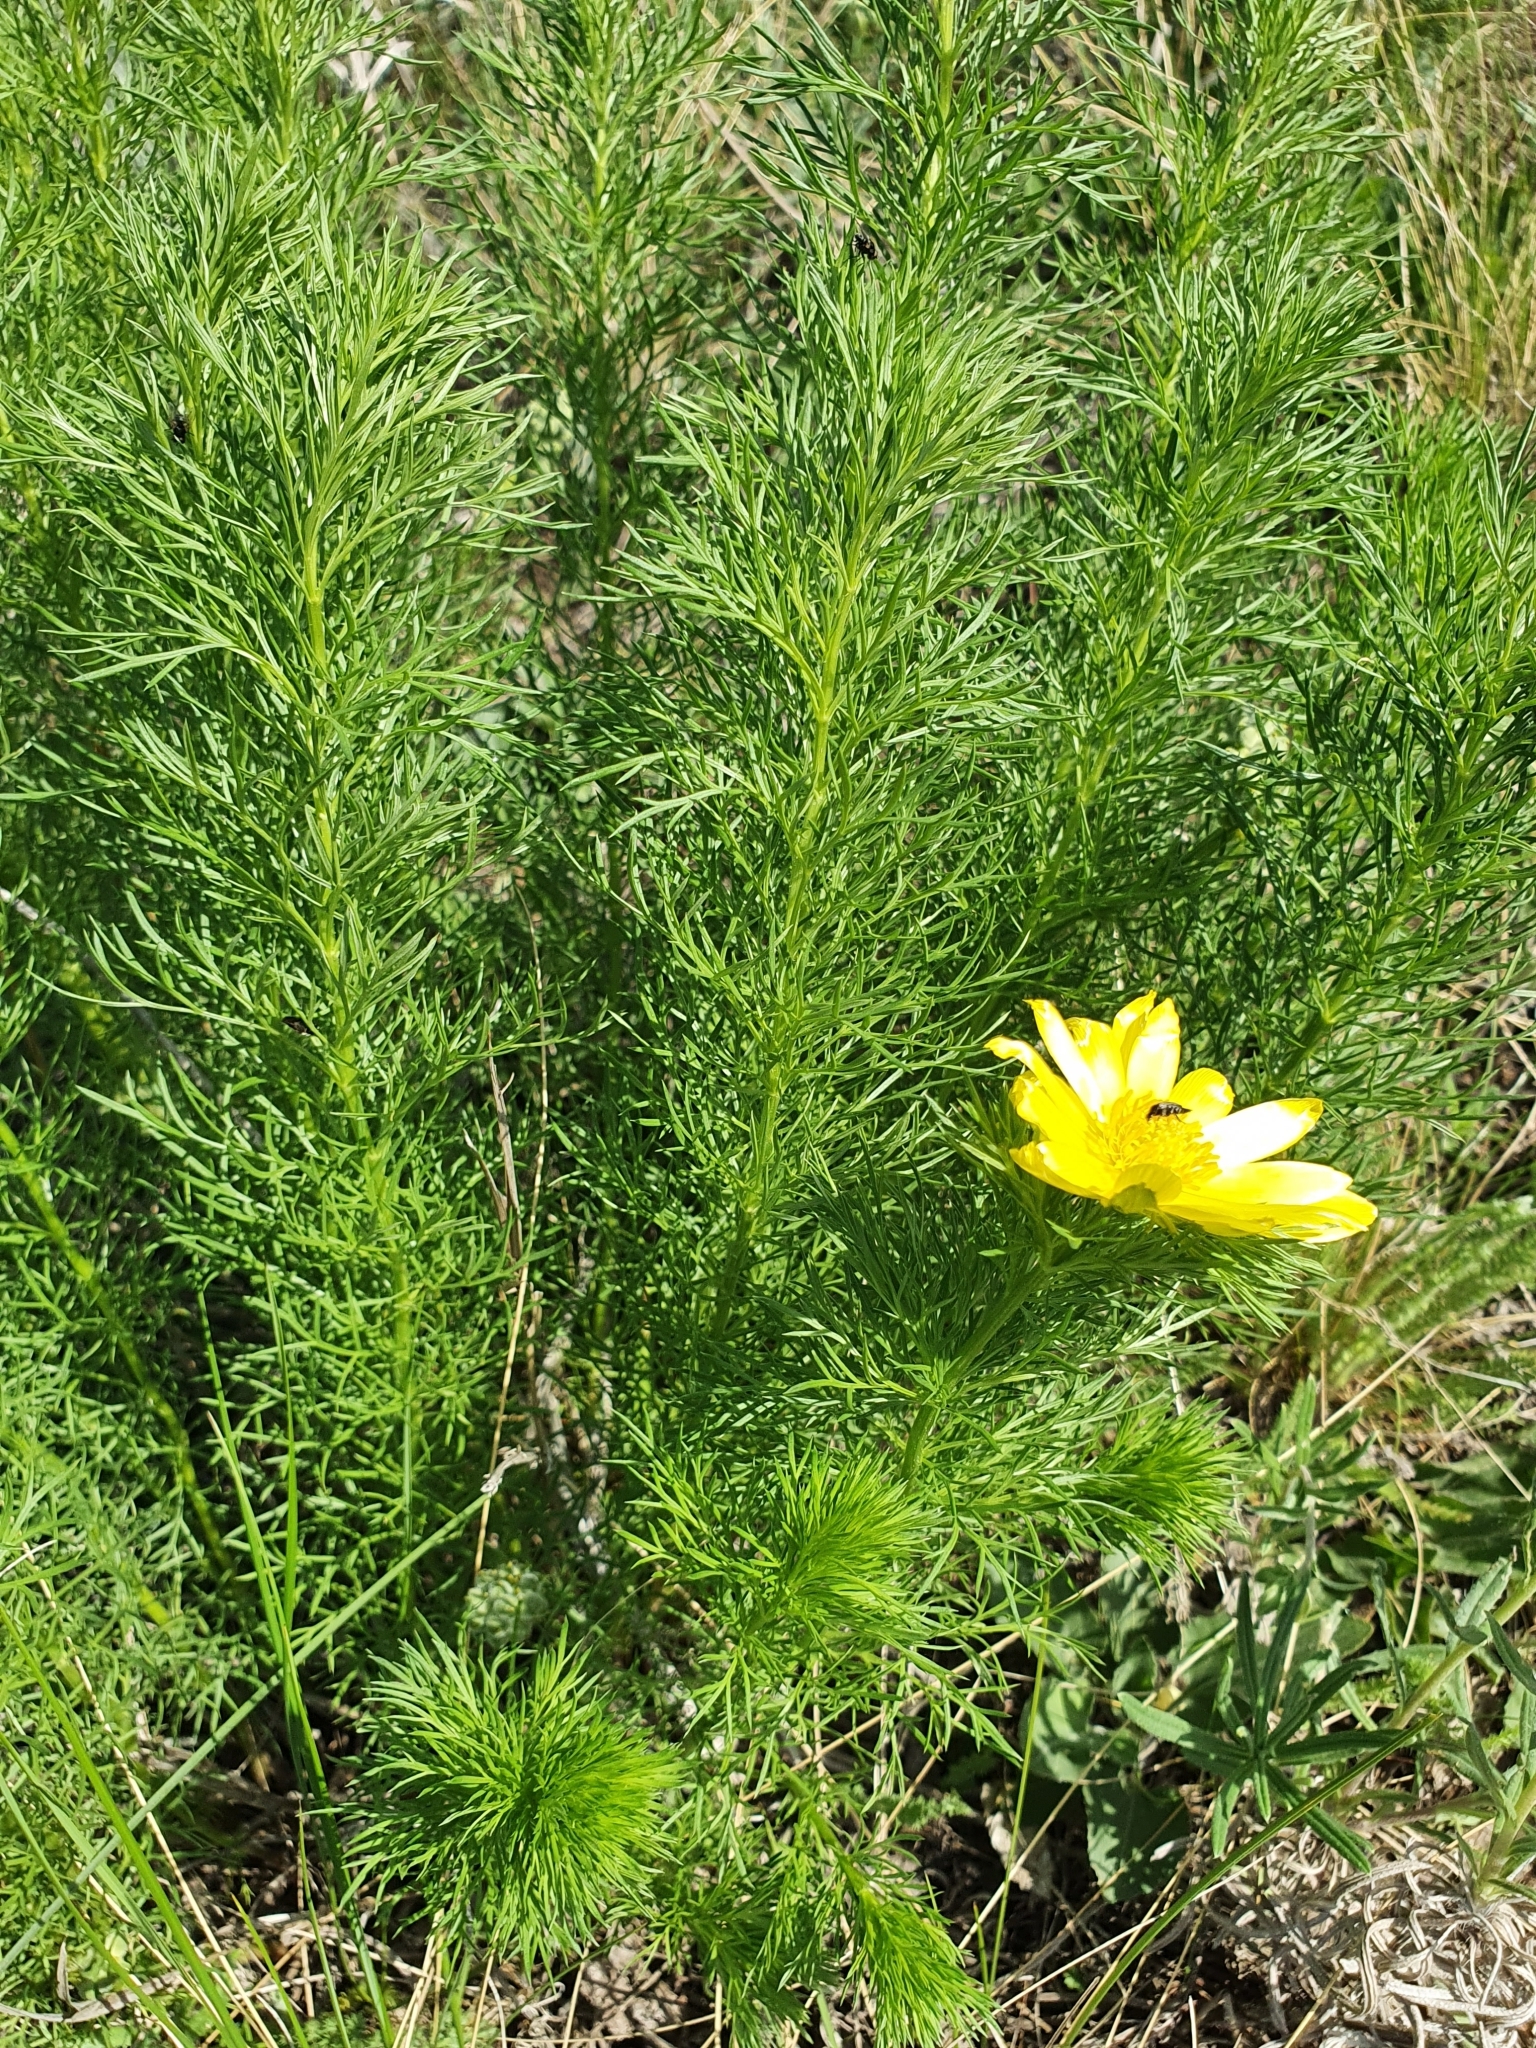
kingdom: Plantae
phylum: Tracheophyta
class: Magnoliopsida
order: Ranunculales
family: Ranunculaceae
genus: Adonis
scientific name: Adonis vernalis
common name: Yellow pheasants-eye
